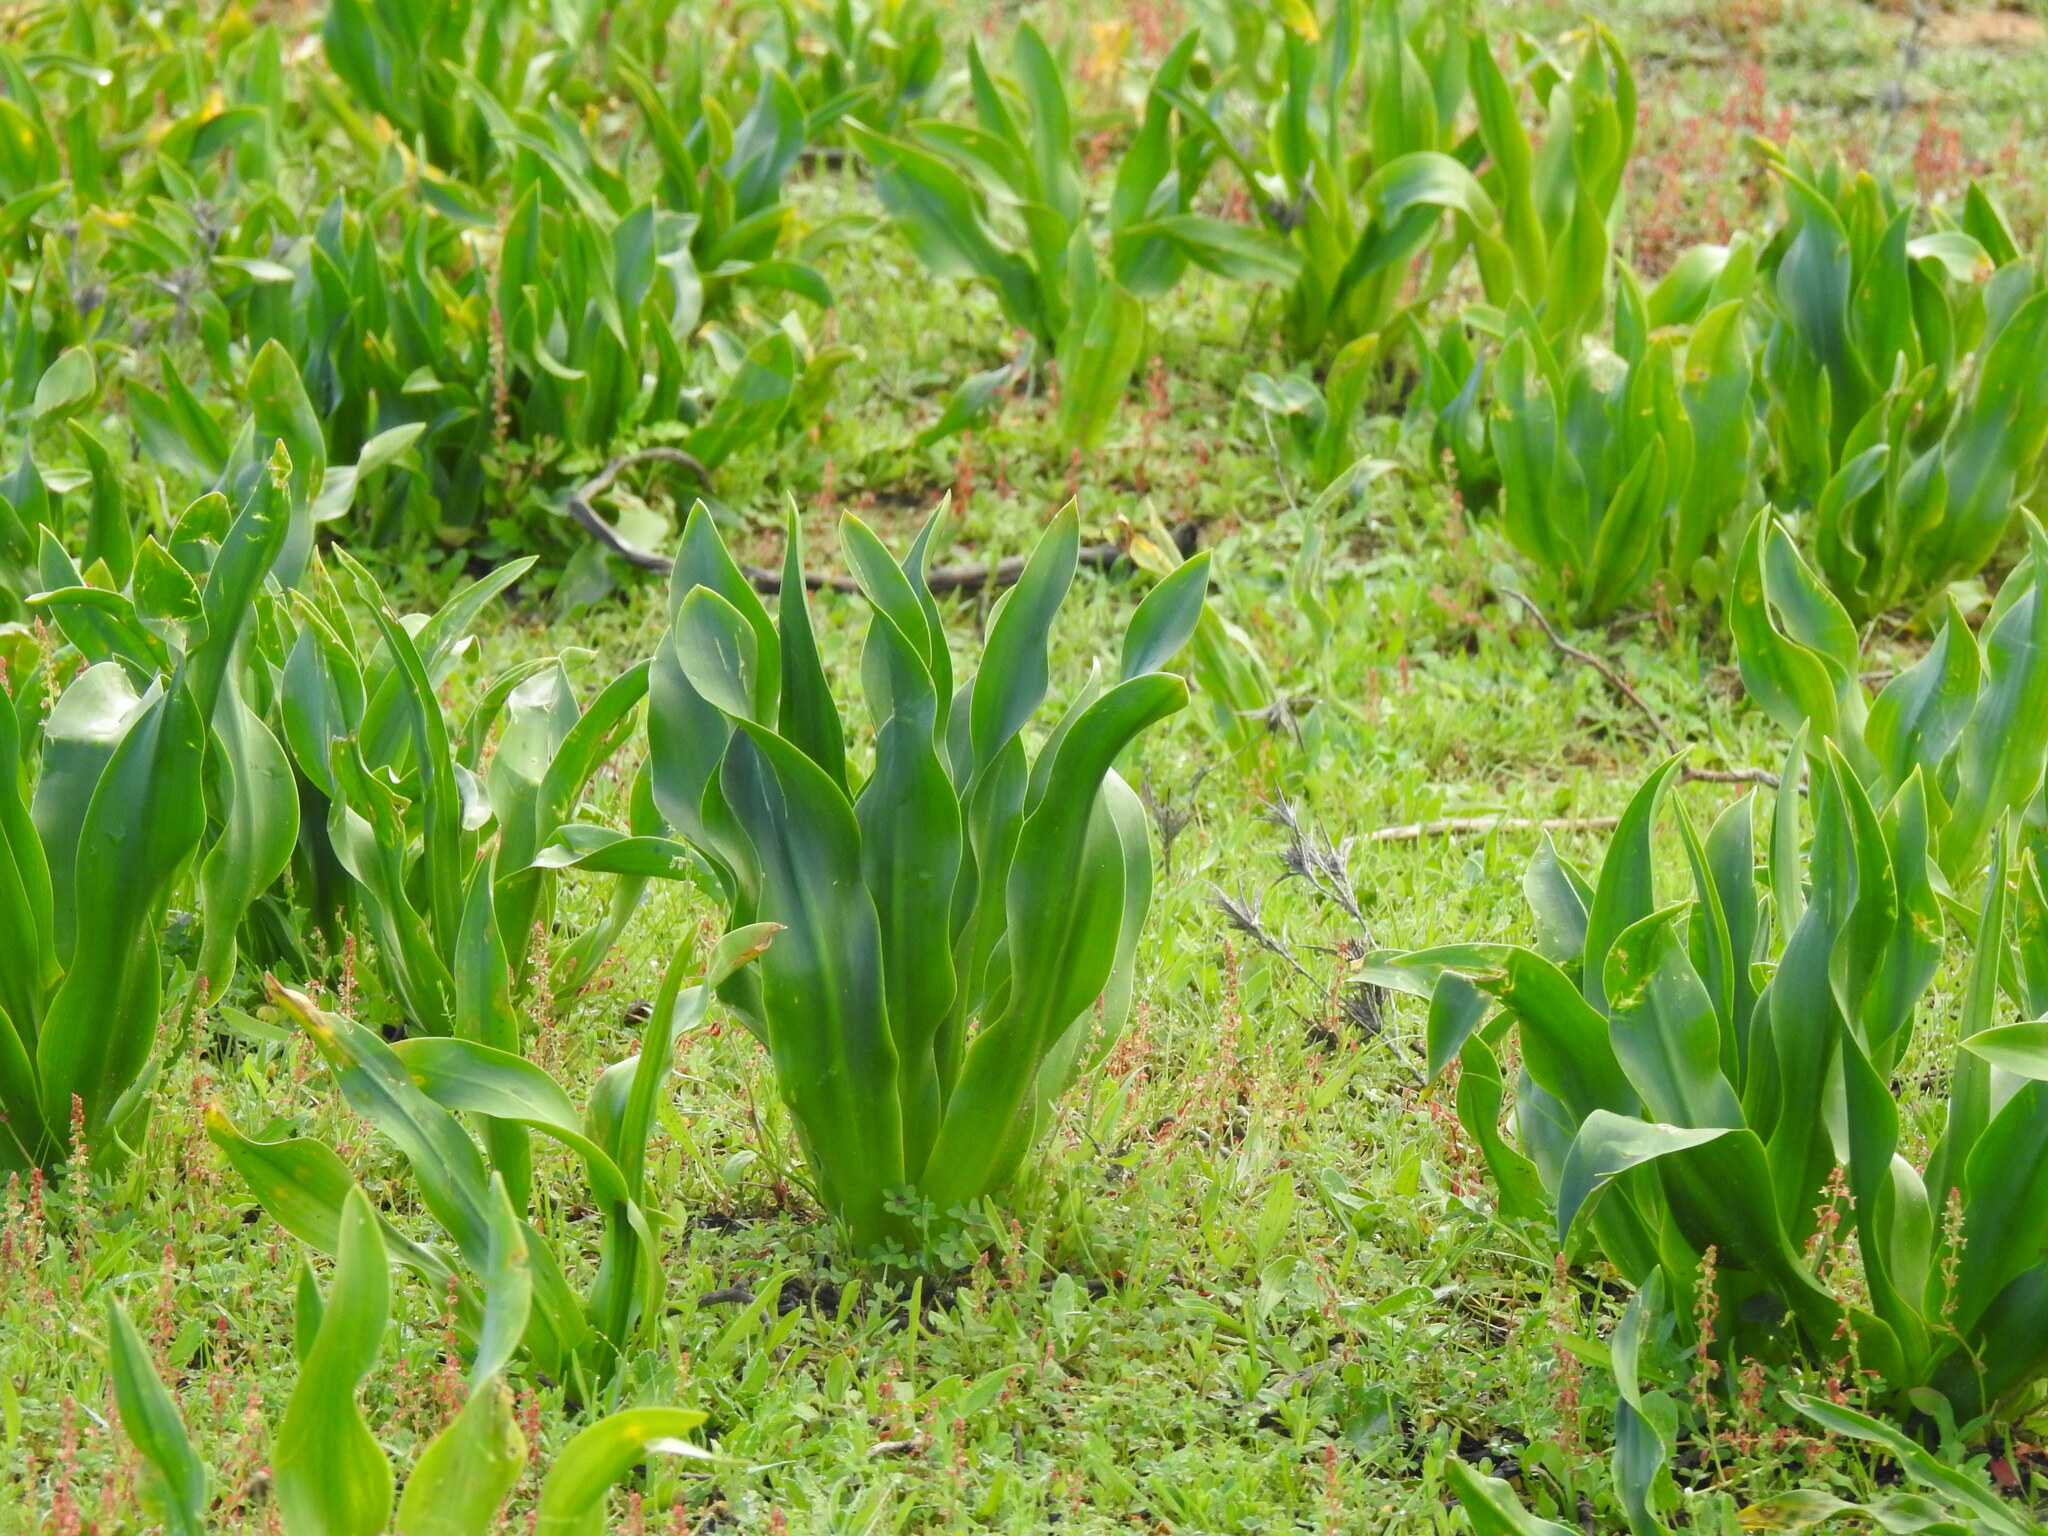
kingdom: Plantae
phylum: Tracheophyta
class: Liliopsida
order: Asparagales
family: Asparagaceae
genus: Drimia
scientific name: Drimia maritima
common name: Maritime squill
